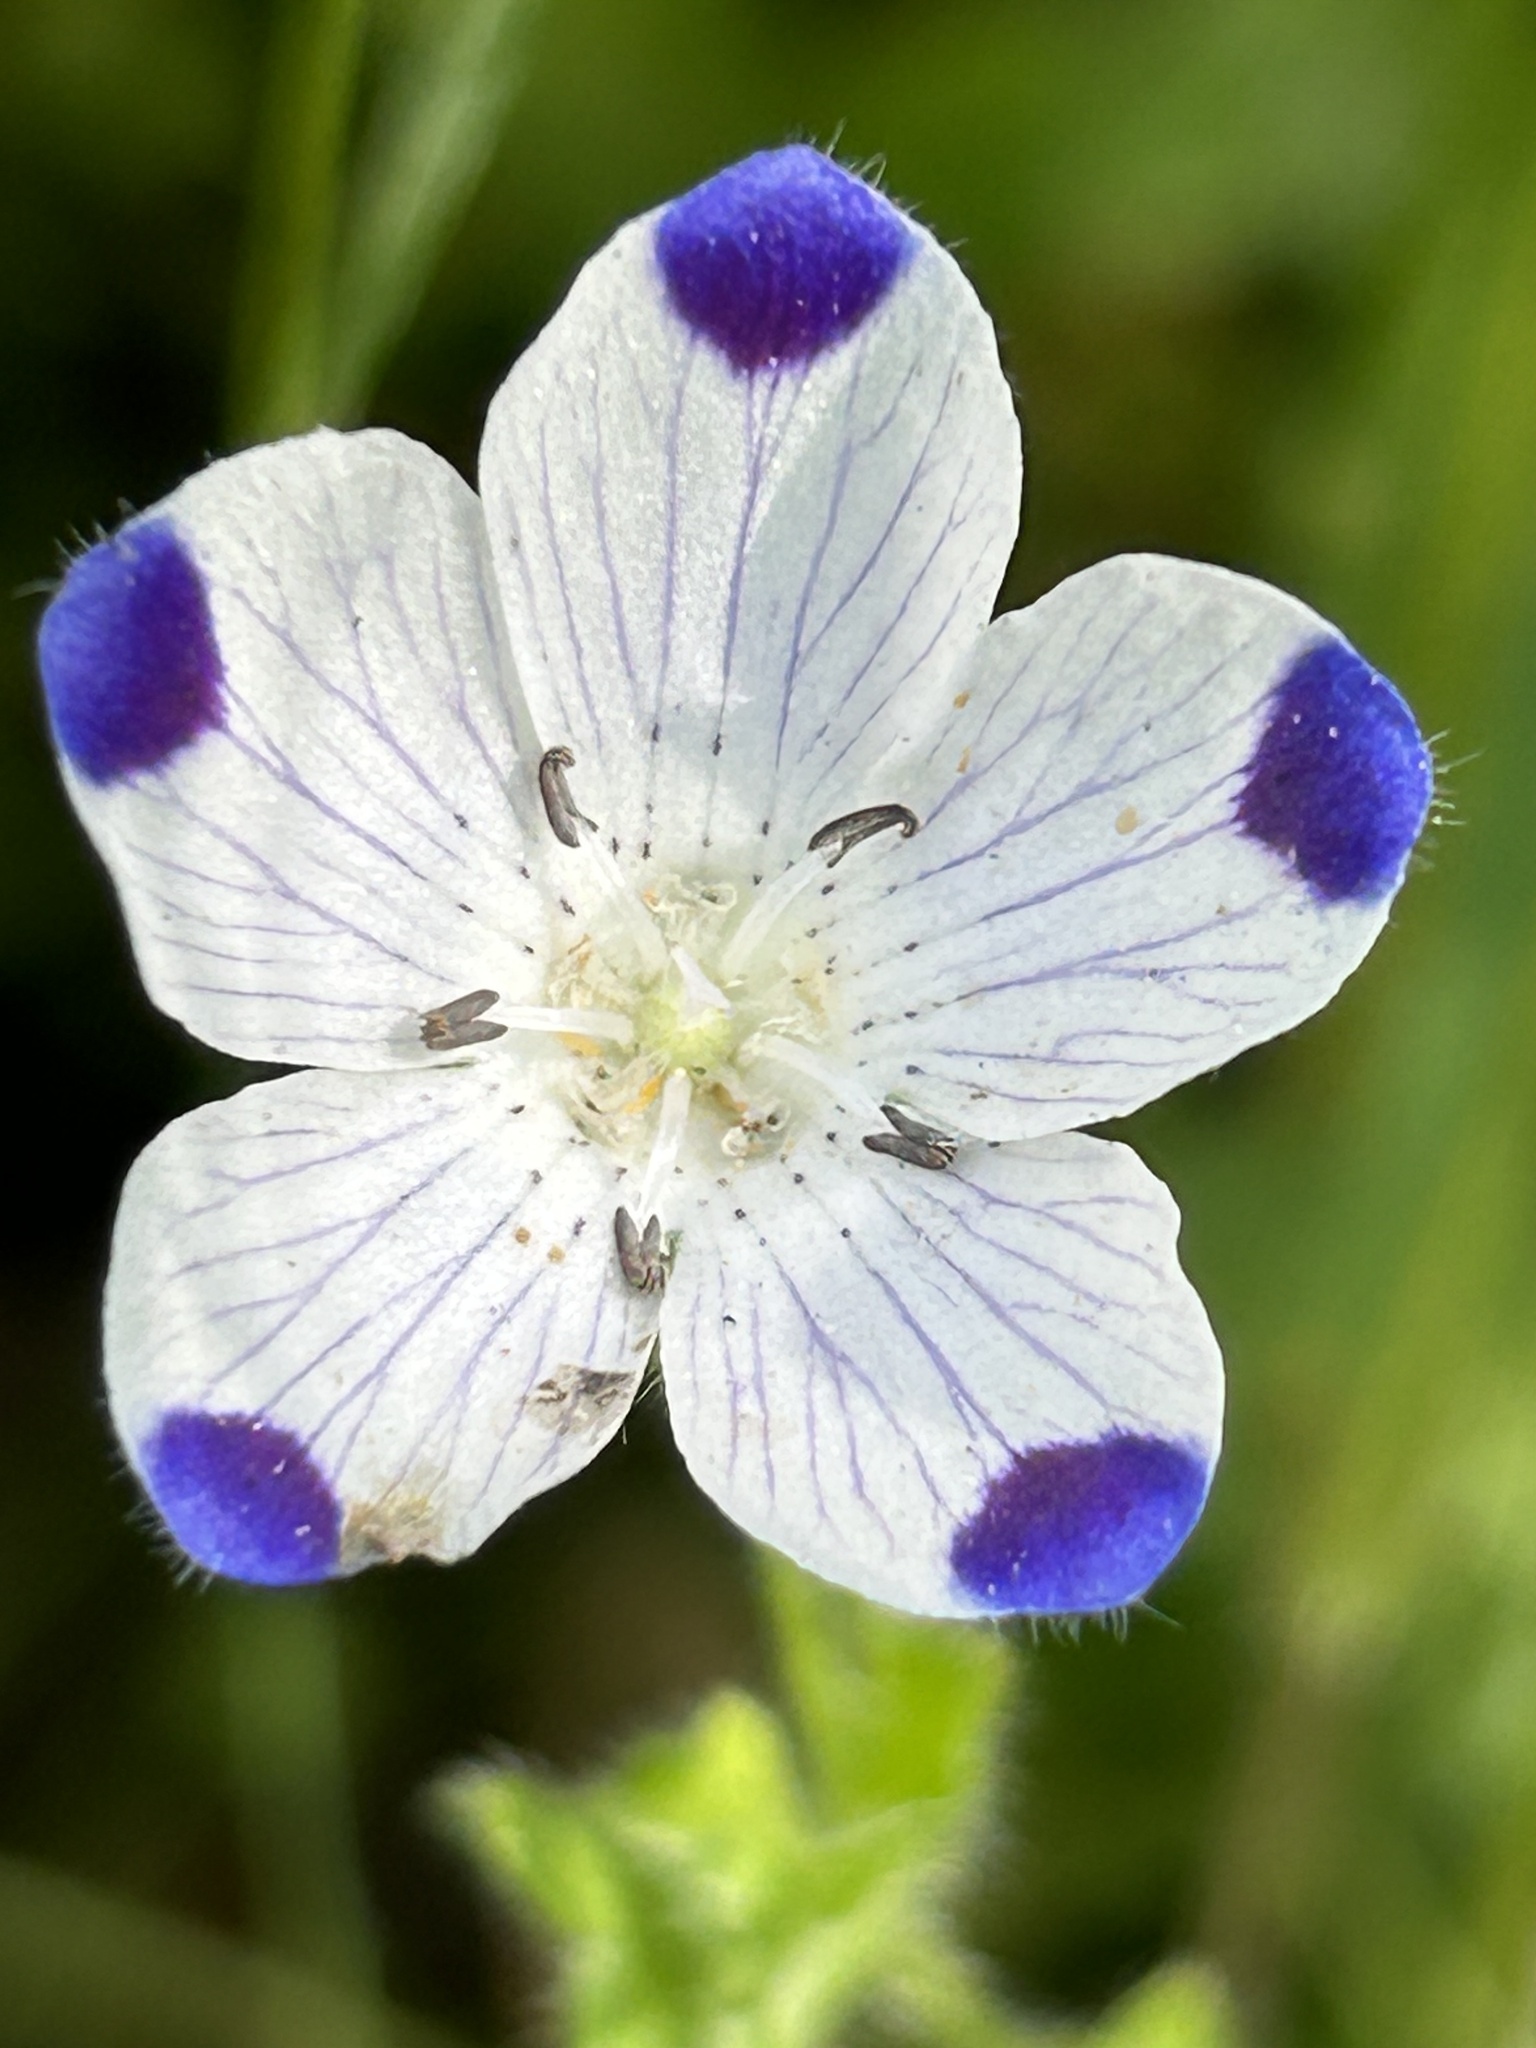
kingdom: Plantae
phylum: Tracheophyta
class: Magnoliopsida
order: Boraginales
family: Hydrophyllaceae
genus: Nemophila
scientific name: Nemophila maculata
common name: Fivespot
